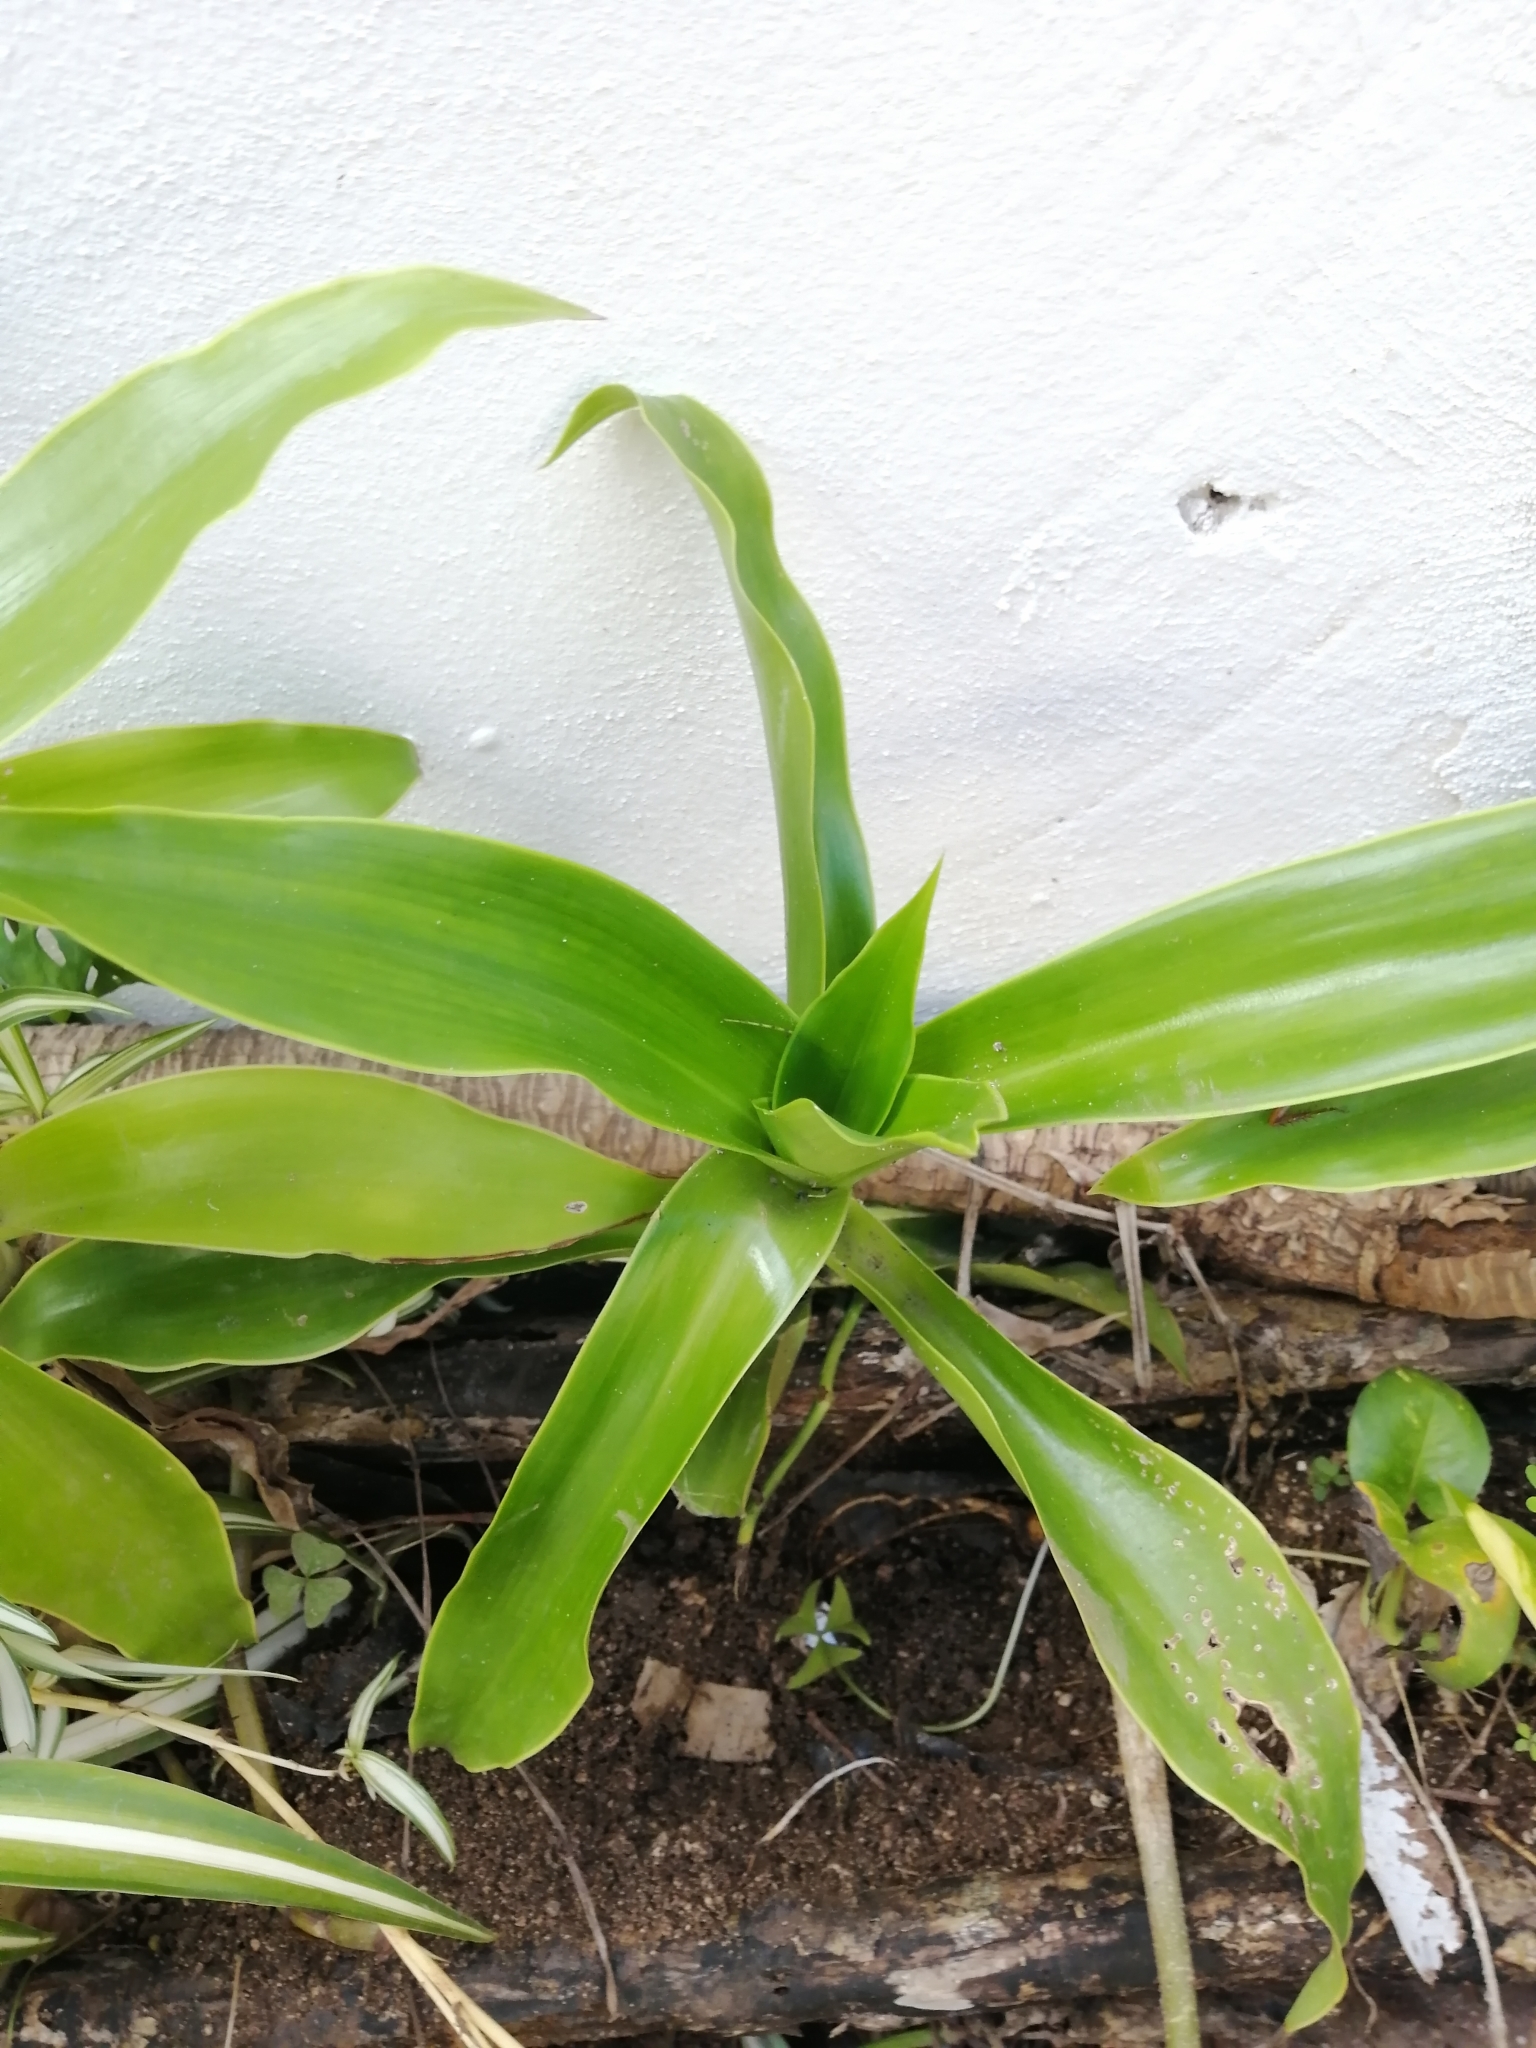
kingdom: Plantae
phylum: Tracheophyta
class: Liliopsida
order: Commelinales
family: Commelinaceae
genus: Callisia
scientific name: Callisia fragrans
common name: Basketplant
